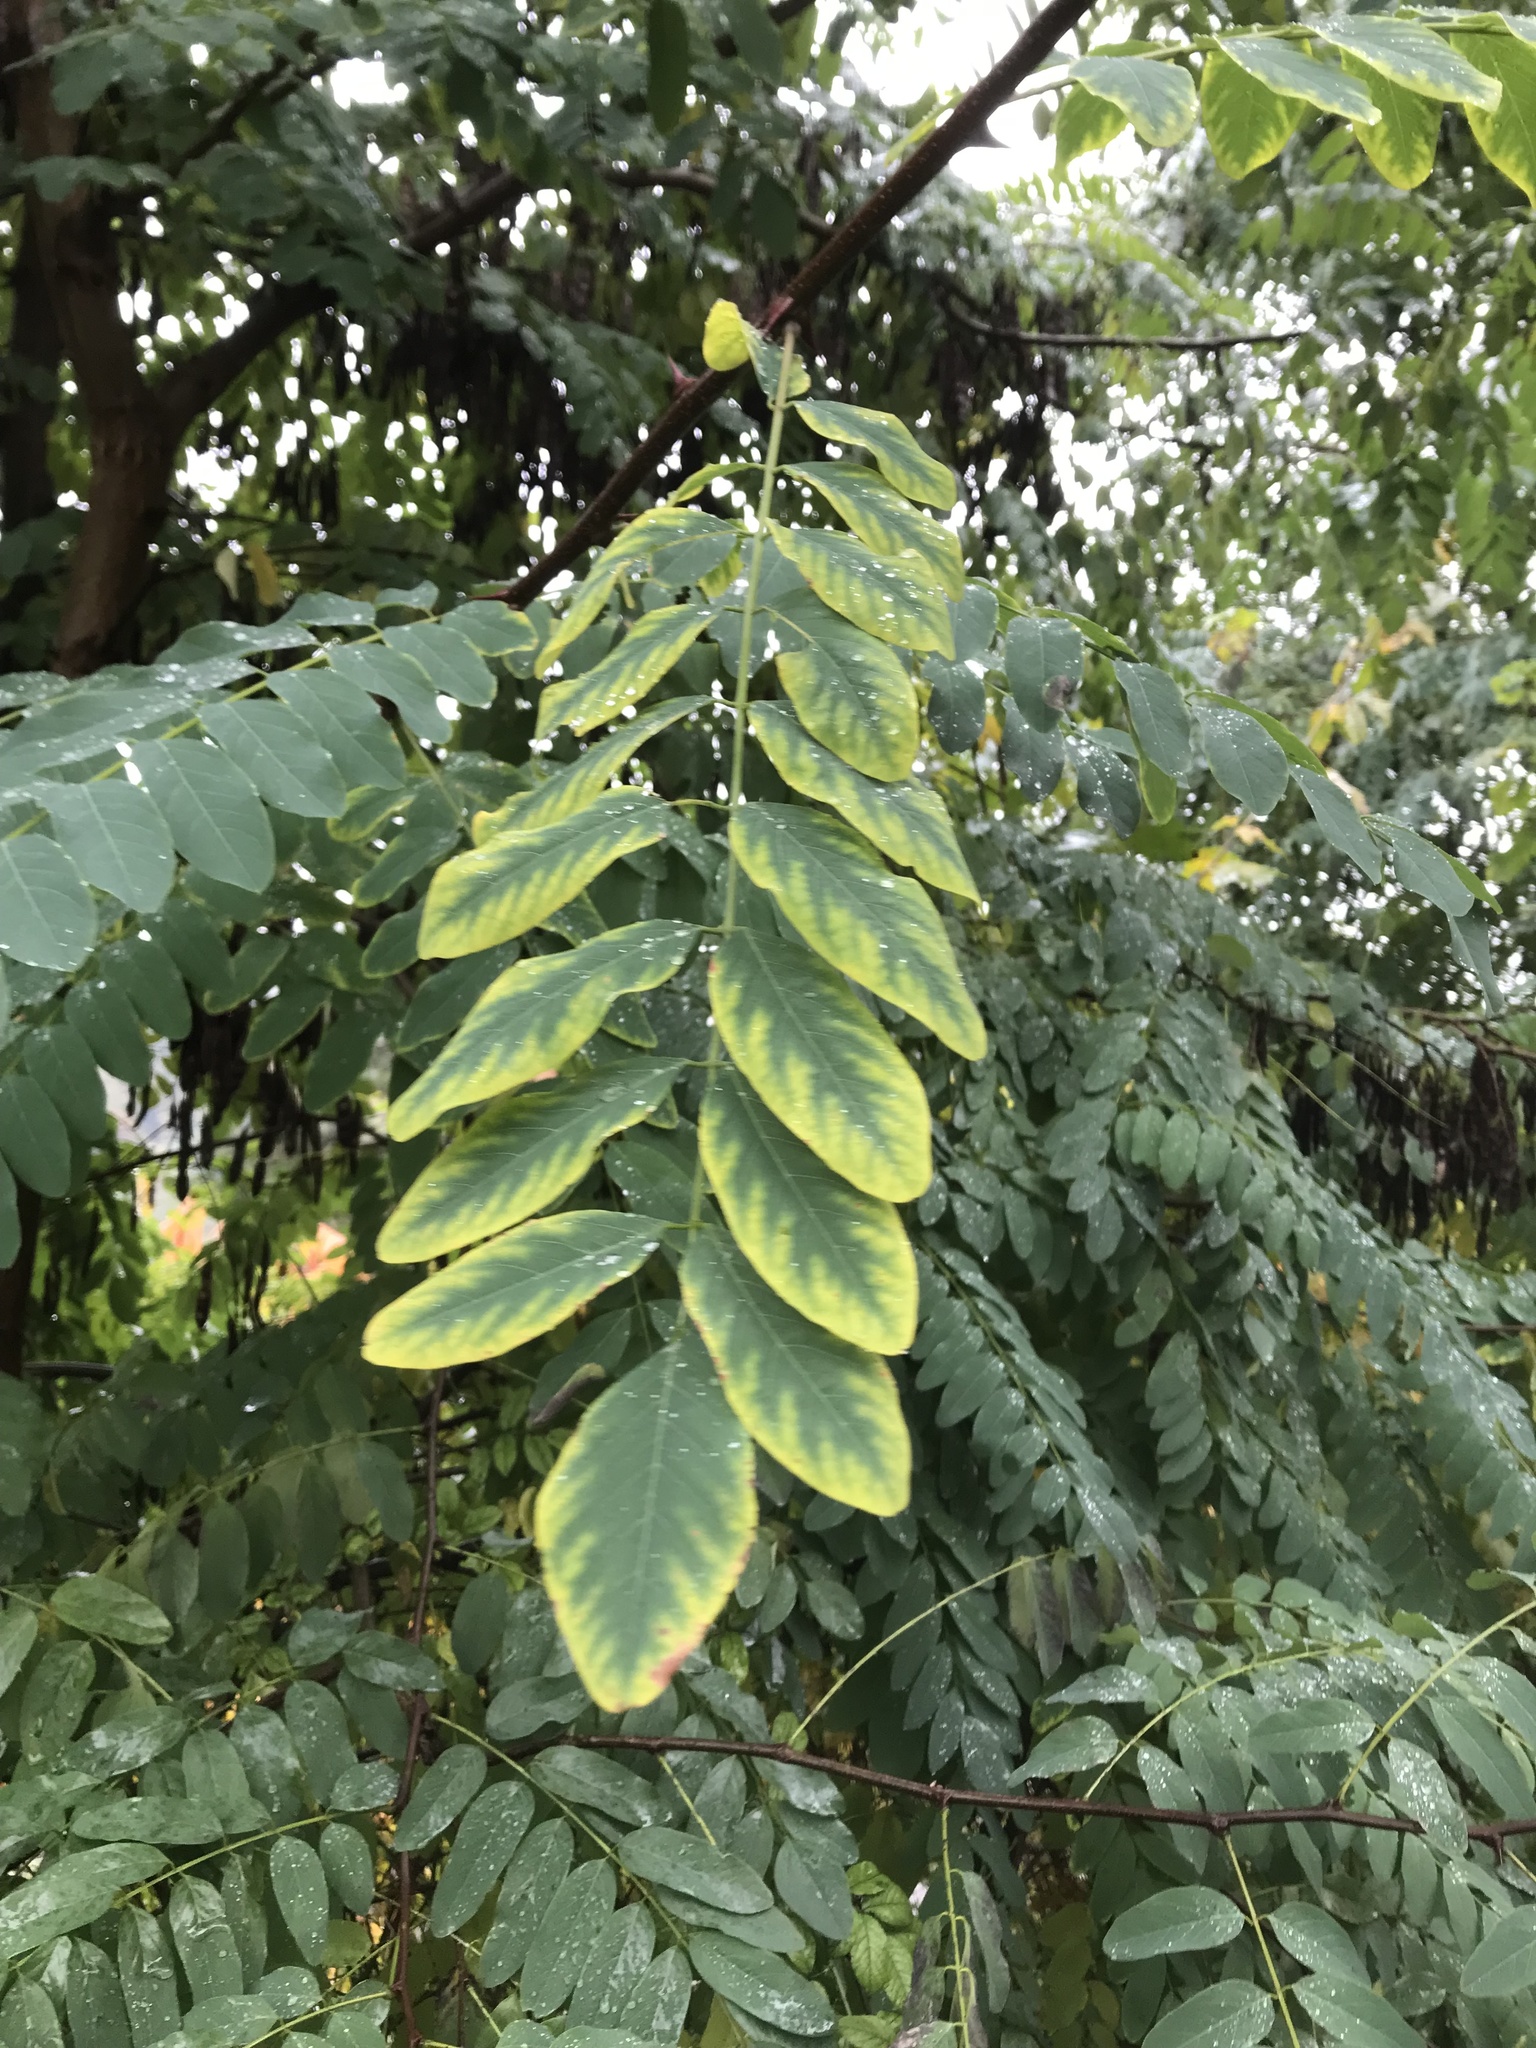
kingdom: Plantae
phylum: Tracheophyta
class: Magnoliopsida
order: Fabales
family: Fabaceae
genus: Robinia
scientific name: Robinia pseudoacacia
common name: Black locust
